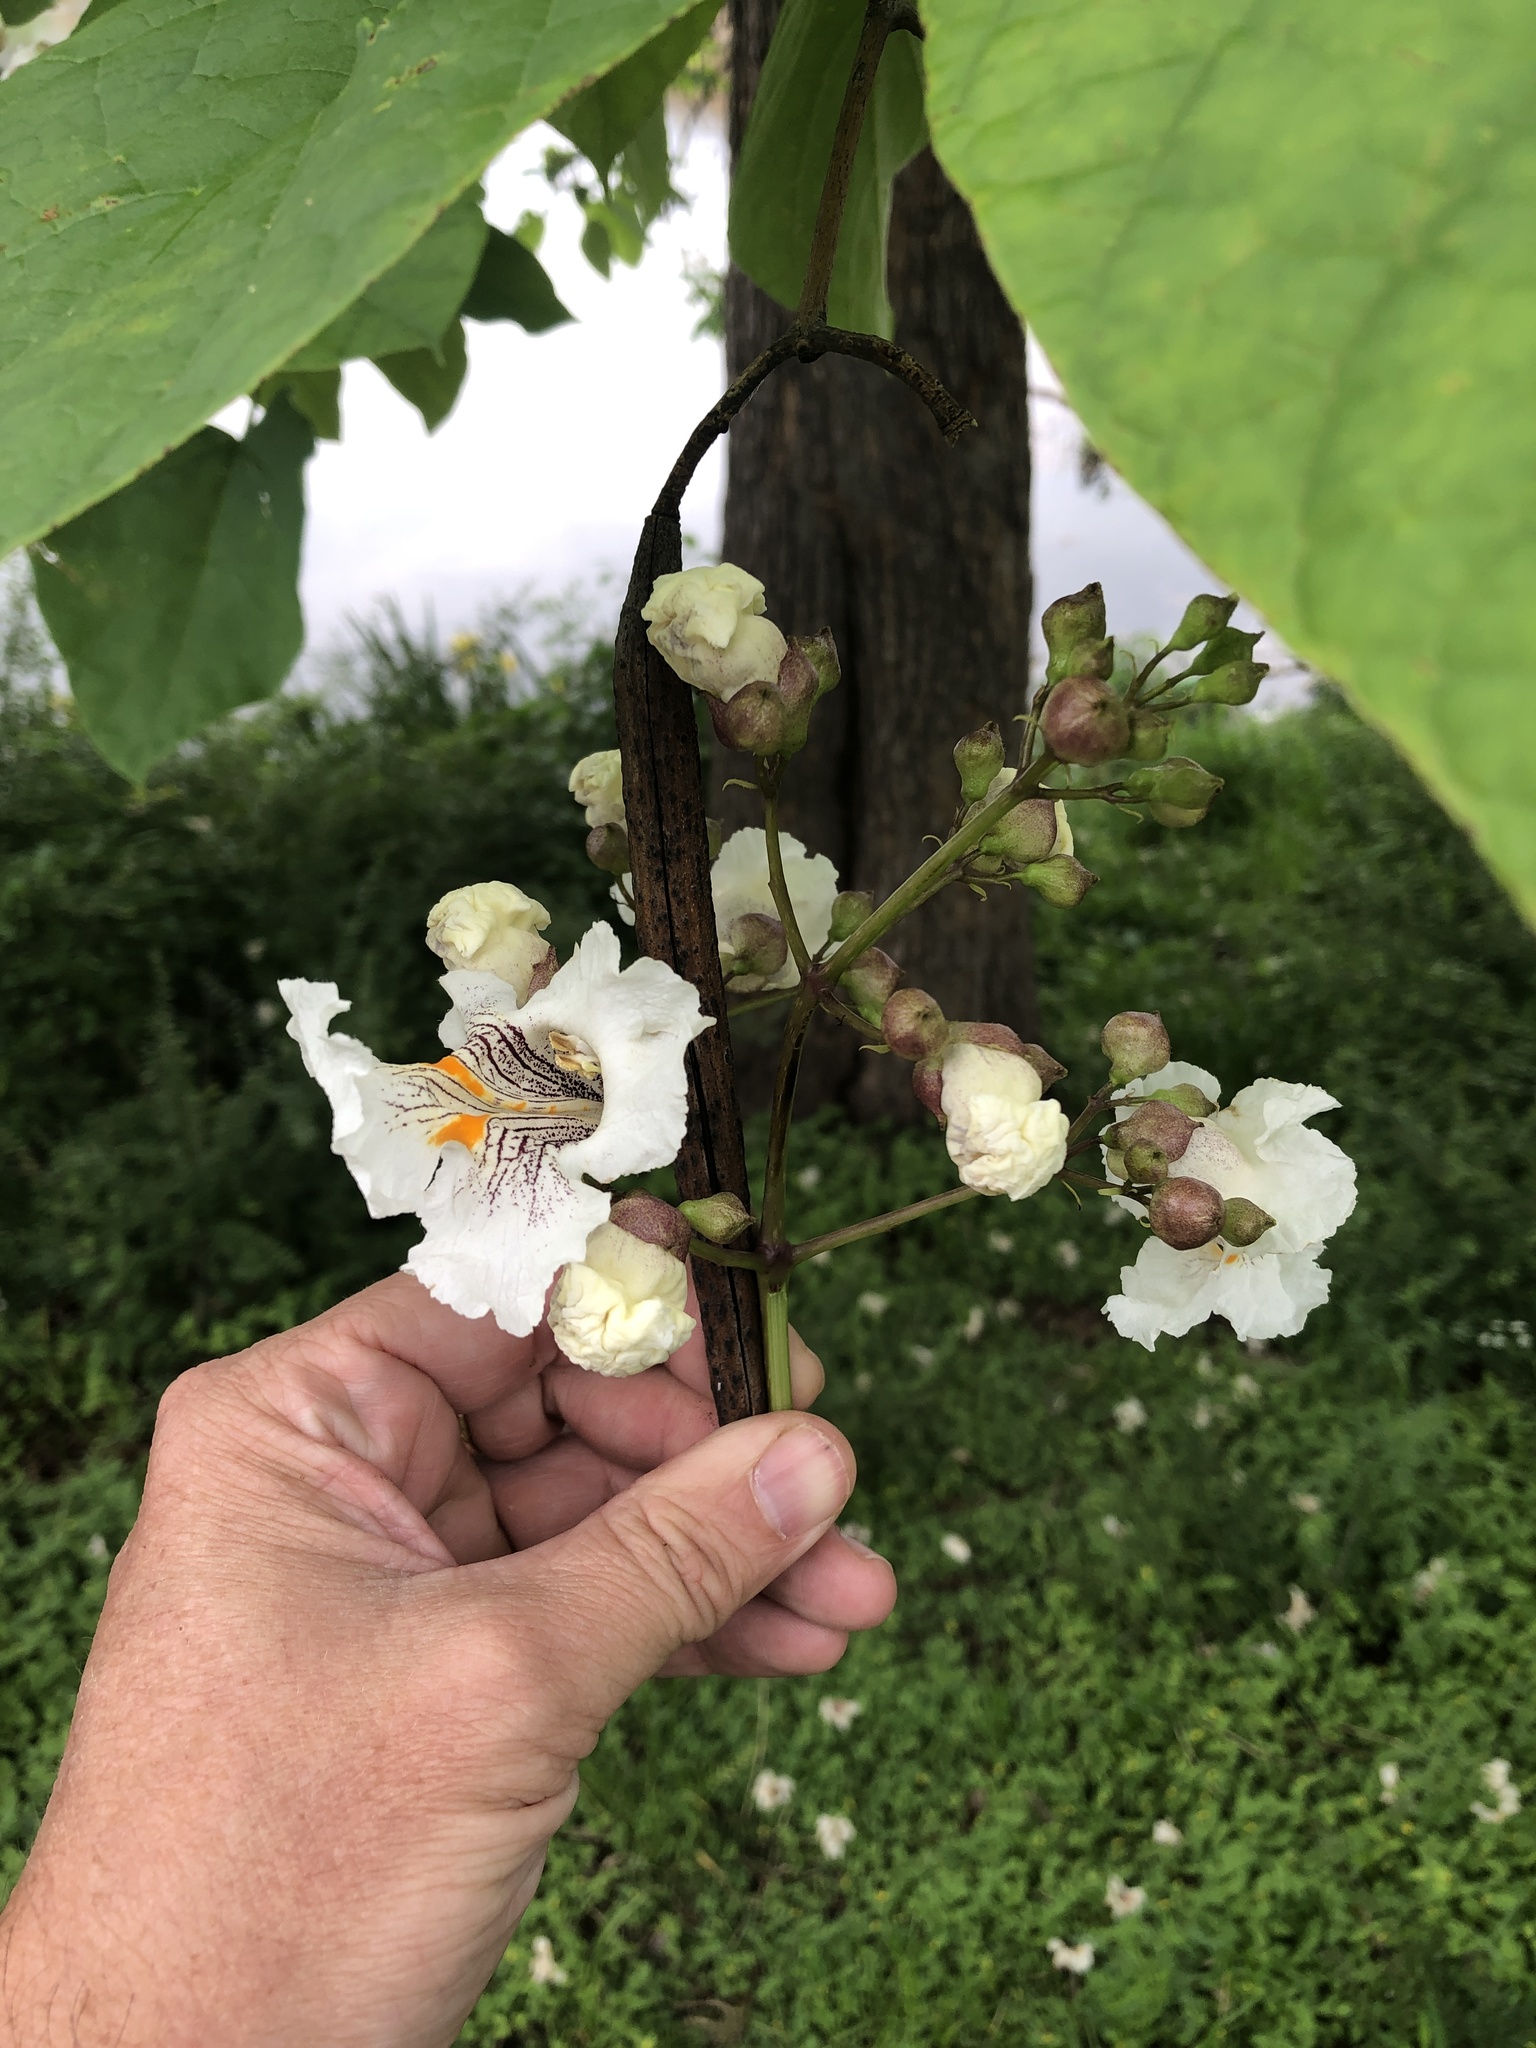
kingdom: Plantae
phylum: Tracheophyta
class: Magnoliopsida
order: Lamiales
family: Bignoniaceae
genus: Catalpa
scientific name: Catalpa bignonioides
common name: Southern catalpa
